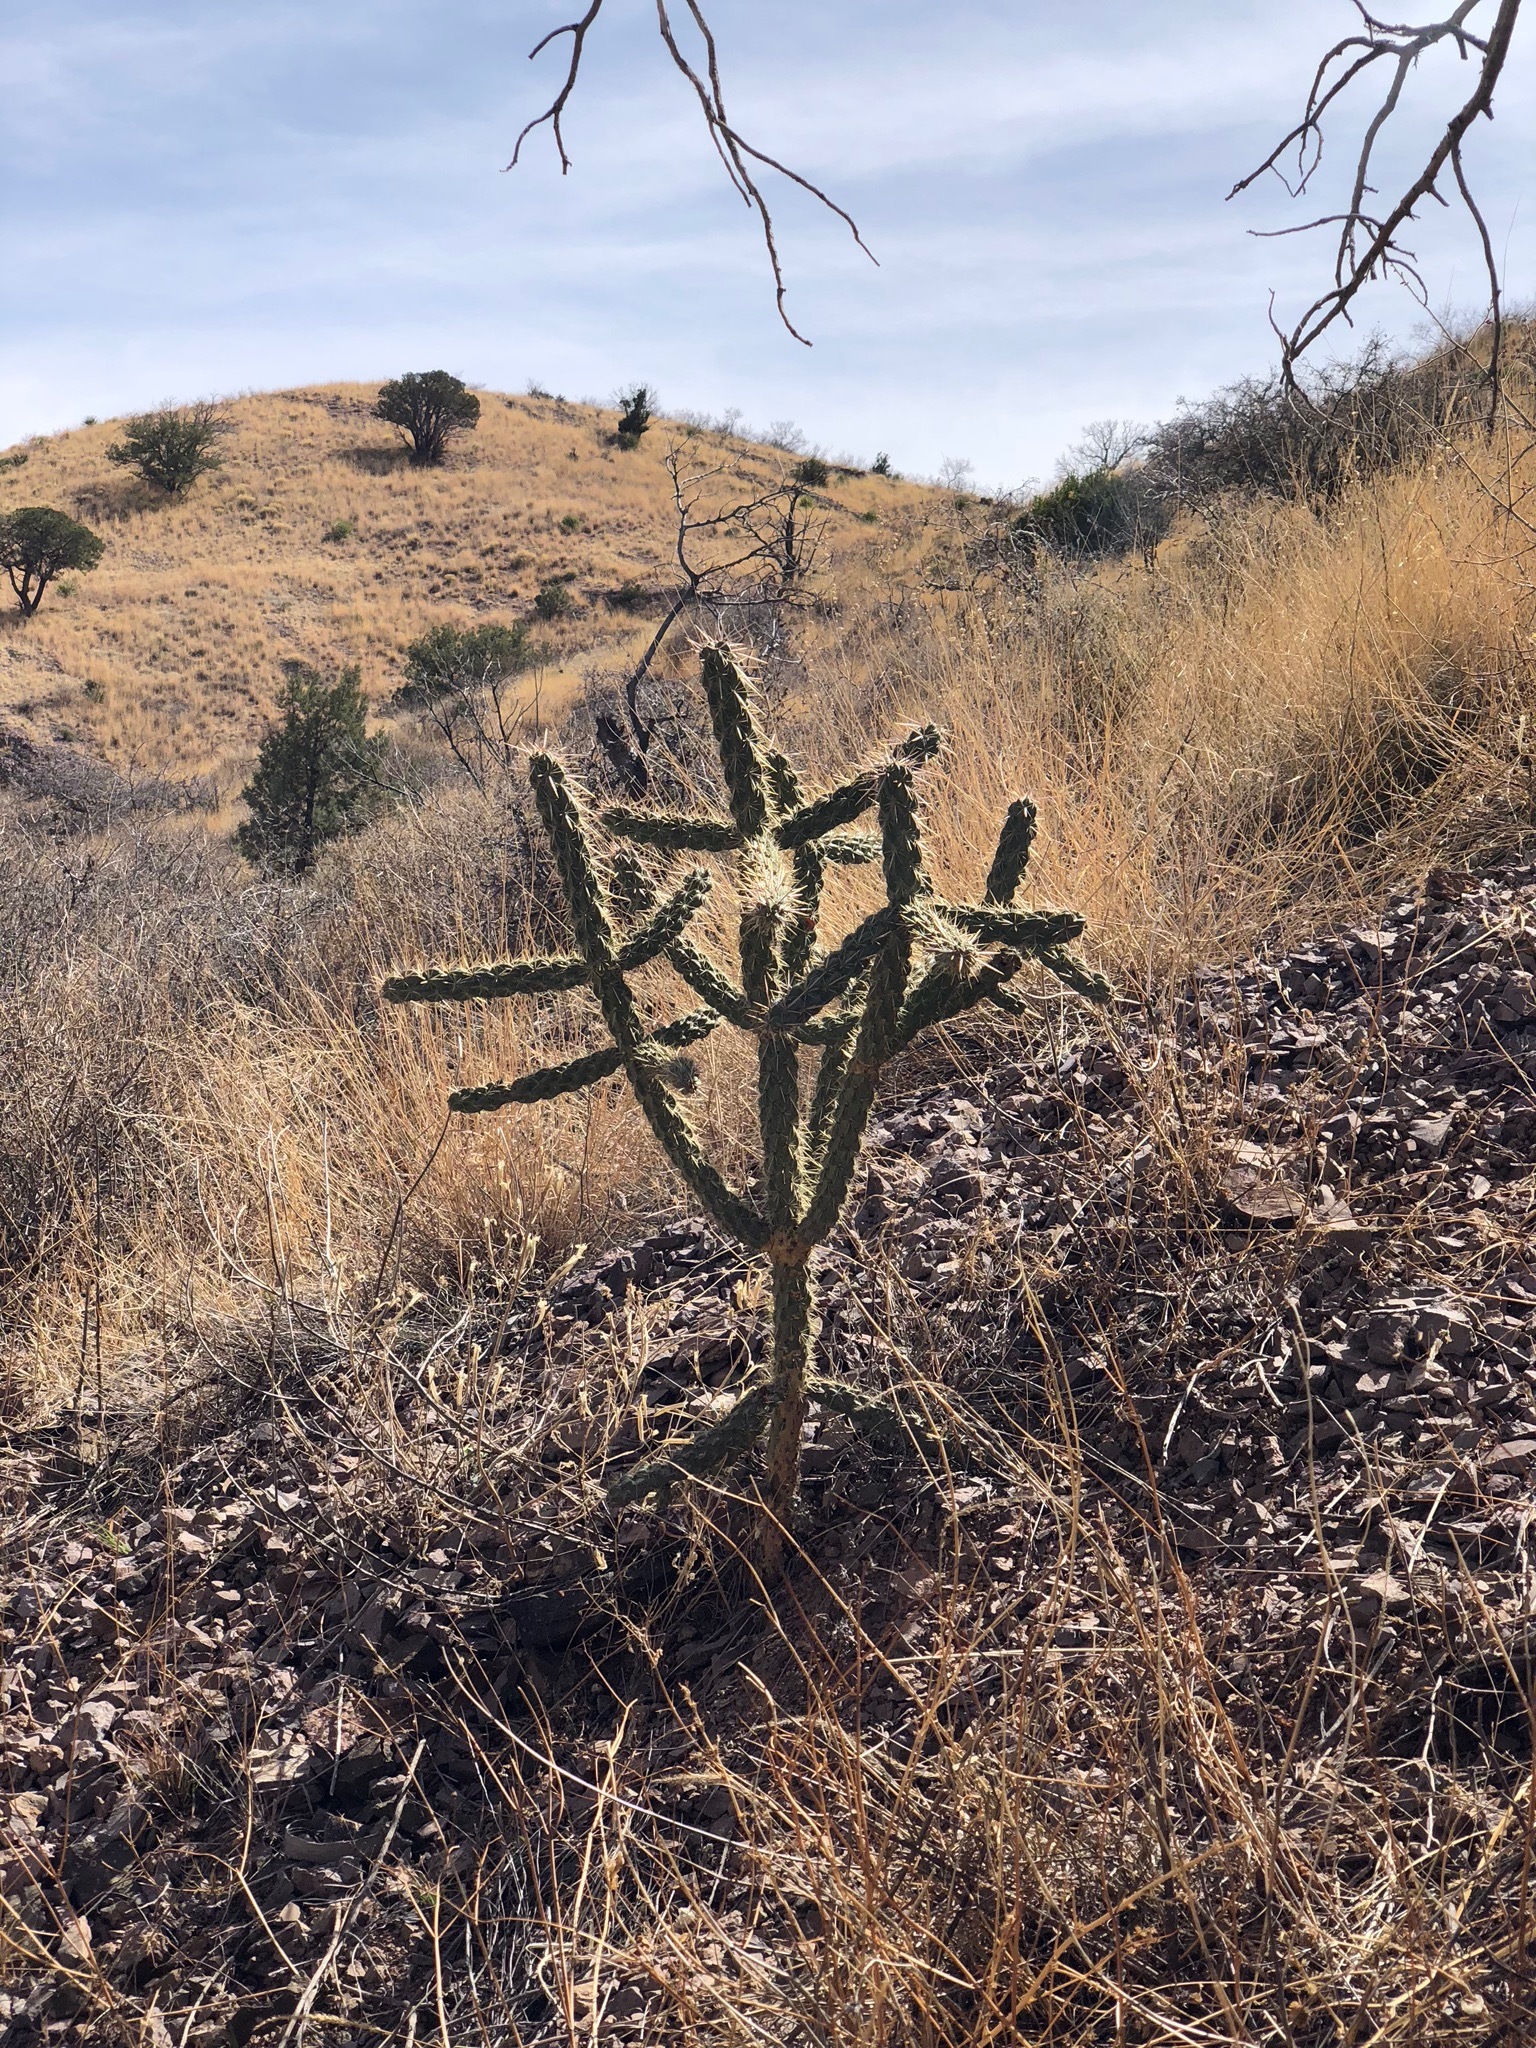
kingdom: Plantae
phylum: Tracheophyta
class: Magnoliopsida
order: Caryophyllales
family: Cactaceae
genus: Cylindropuntia
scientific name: Cylindropuntia imbricata
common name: Candelabrum cactus
